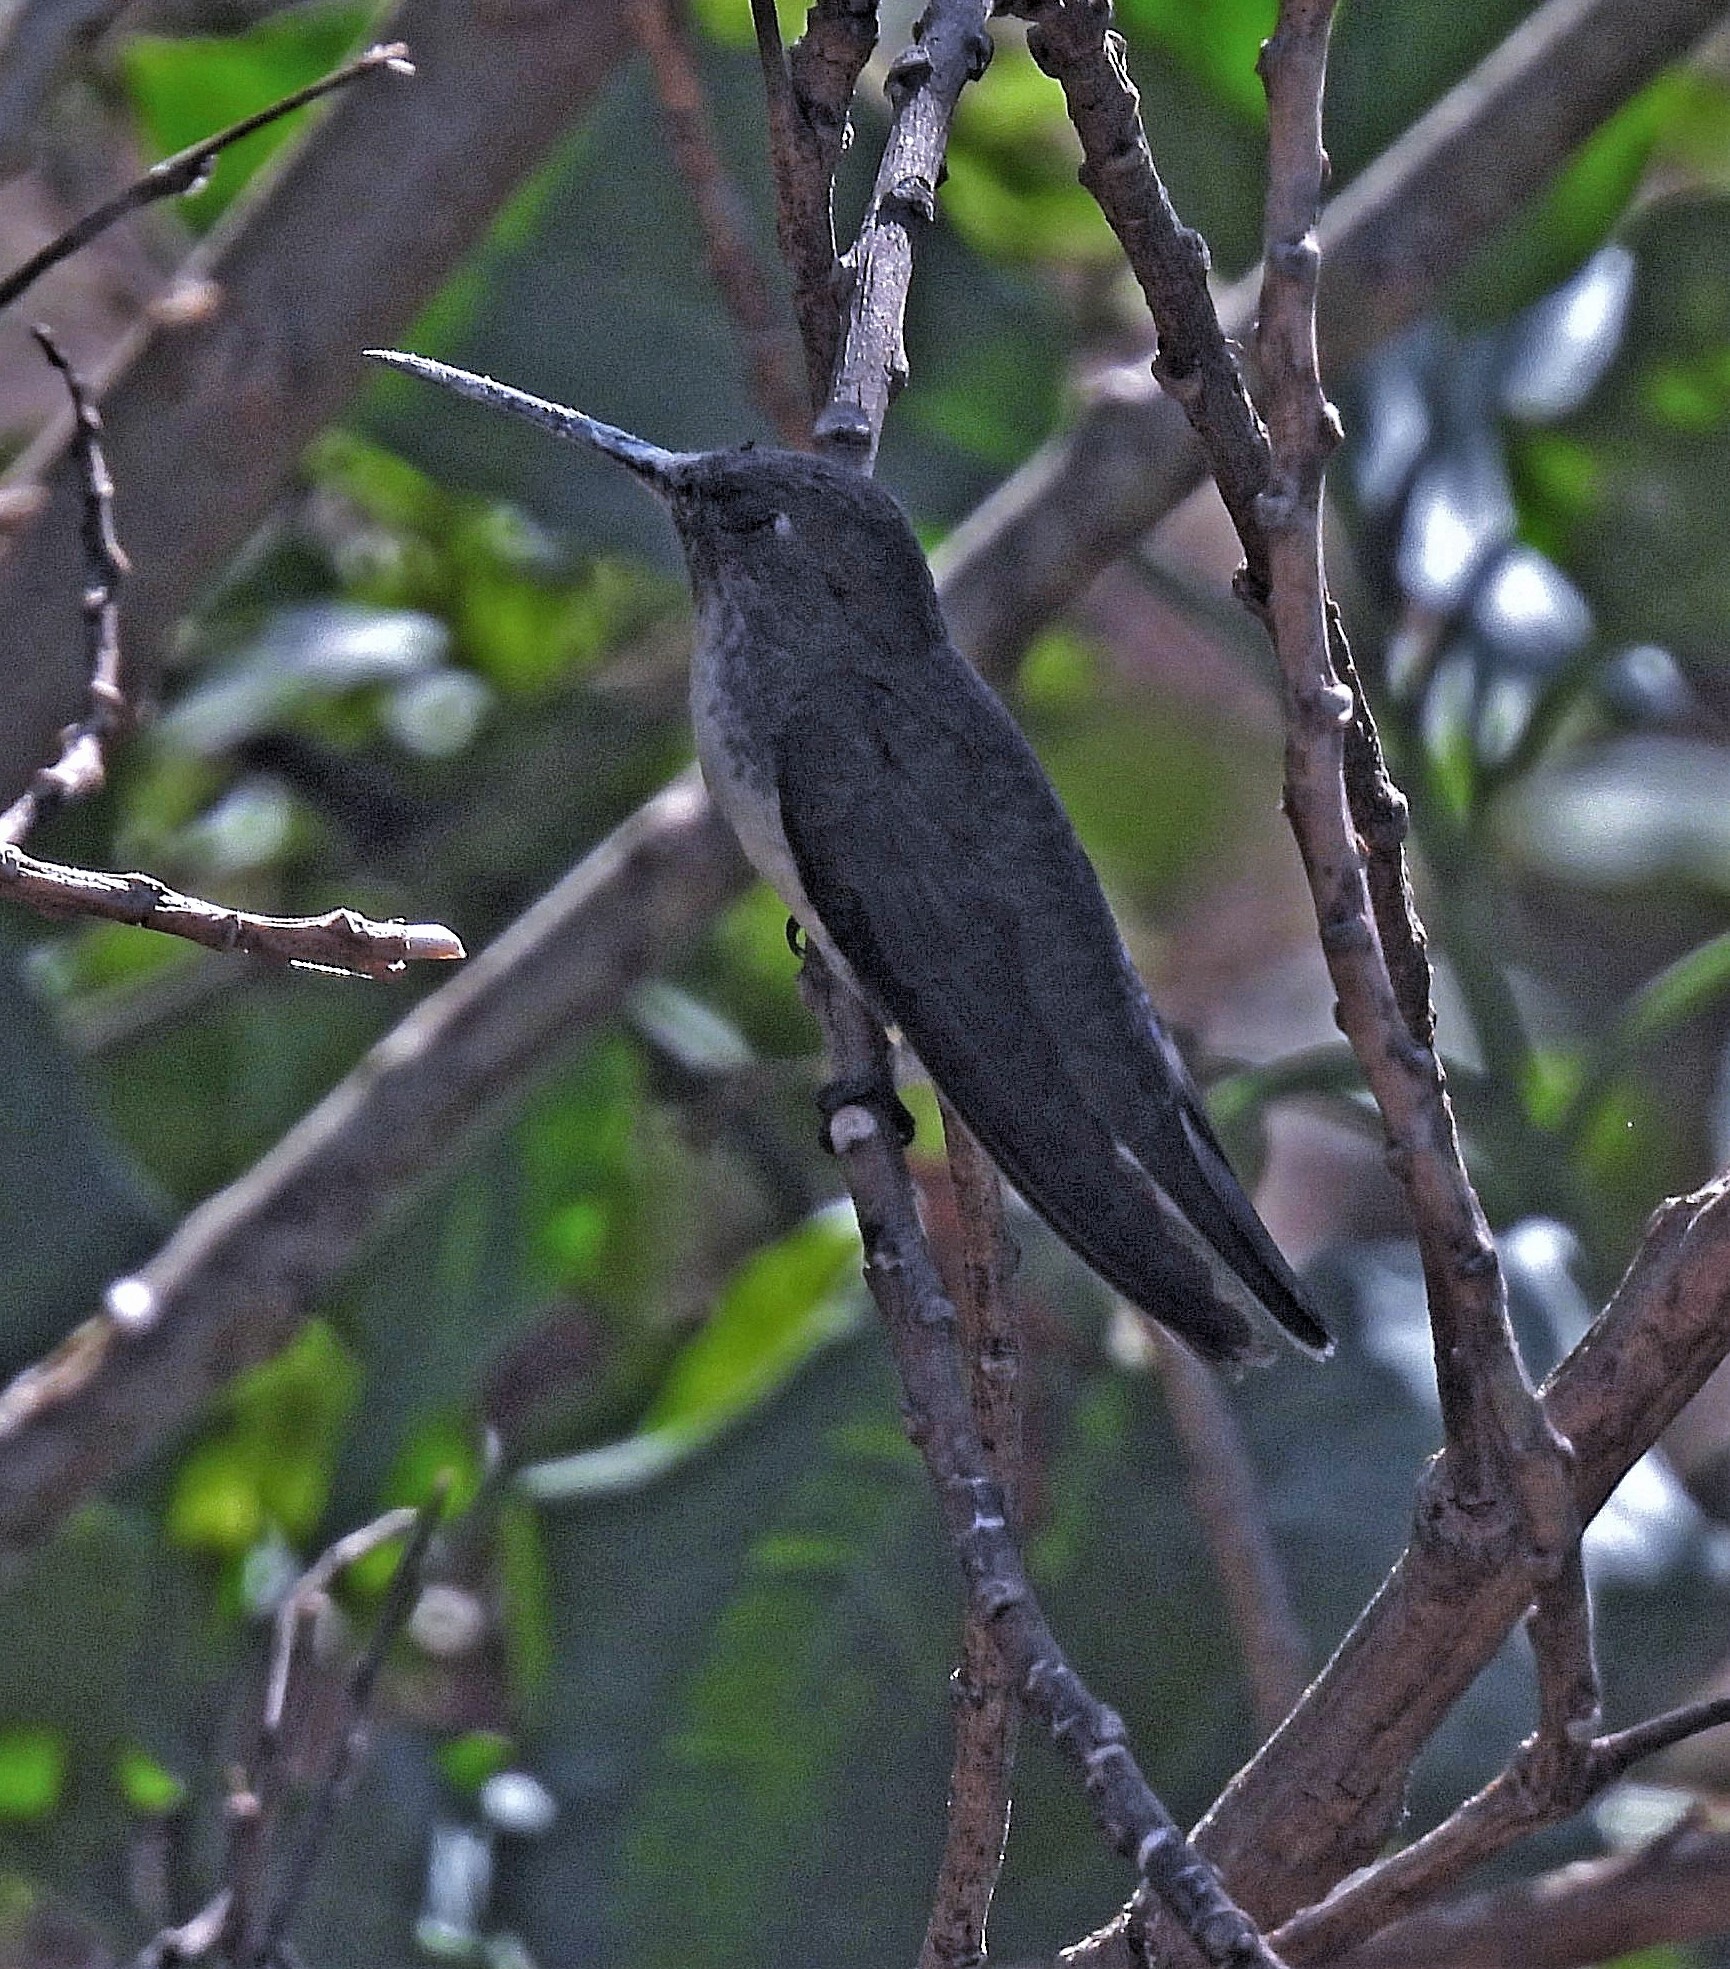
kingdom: Animalia
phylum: Chordata
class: Aves
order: Apodiformes
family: Trochilidae
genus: Elliotomyia
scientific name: Elliotomyia chionogaster
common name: White-bellied hummingbird
